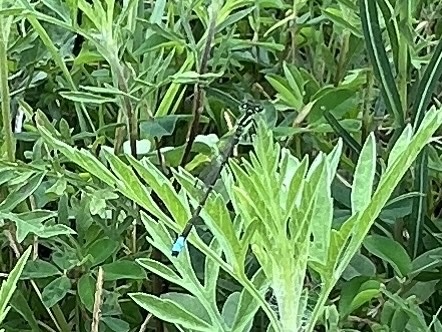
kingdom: Animalia
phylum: Arthropoda
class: Insecta
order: Odonata
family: Coenagrionidae
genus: Ischnura
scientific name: Ischnura verticalis
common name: Eastern forktail
